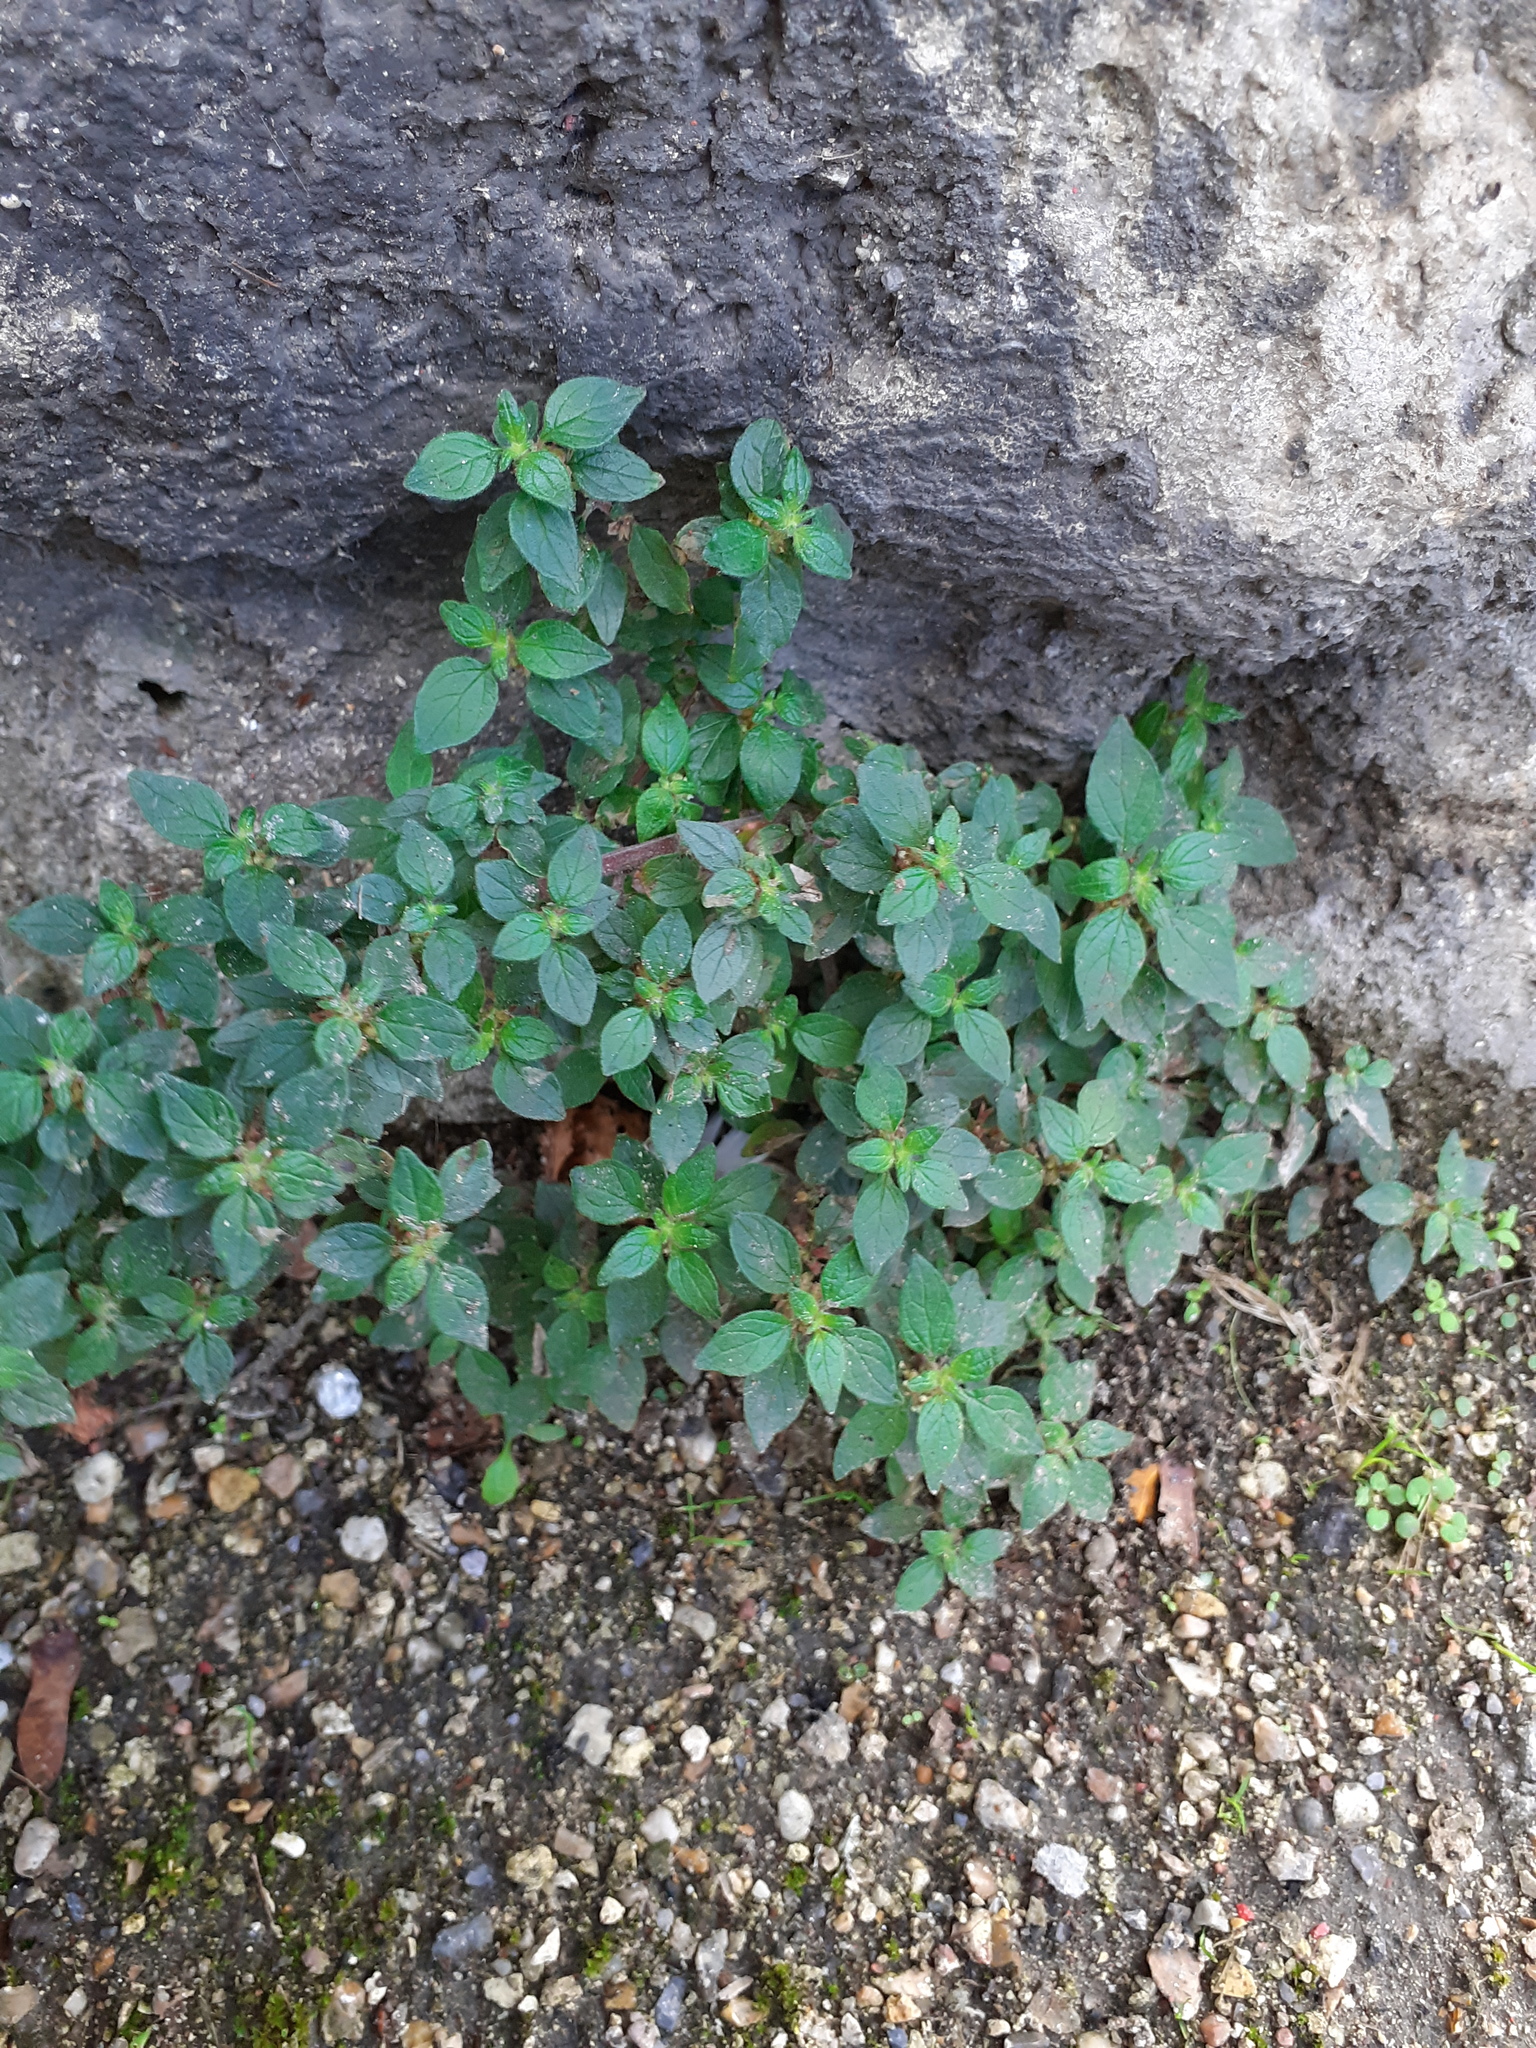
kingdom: Plantae
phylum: Tracheophyta
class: Magnoliopsida
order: Rosales
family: Urticaceae
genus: Parietaria
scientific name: Parietaria judaica
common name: Pellitory-of-the-wall
